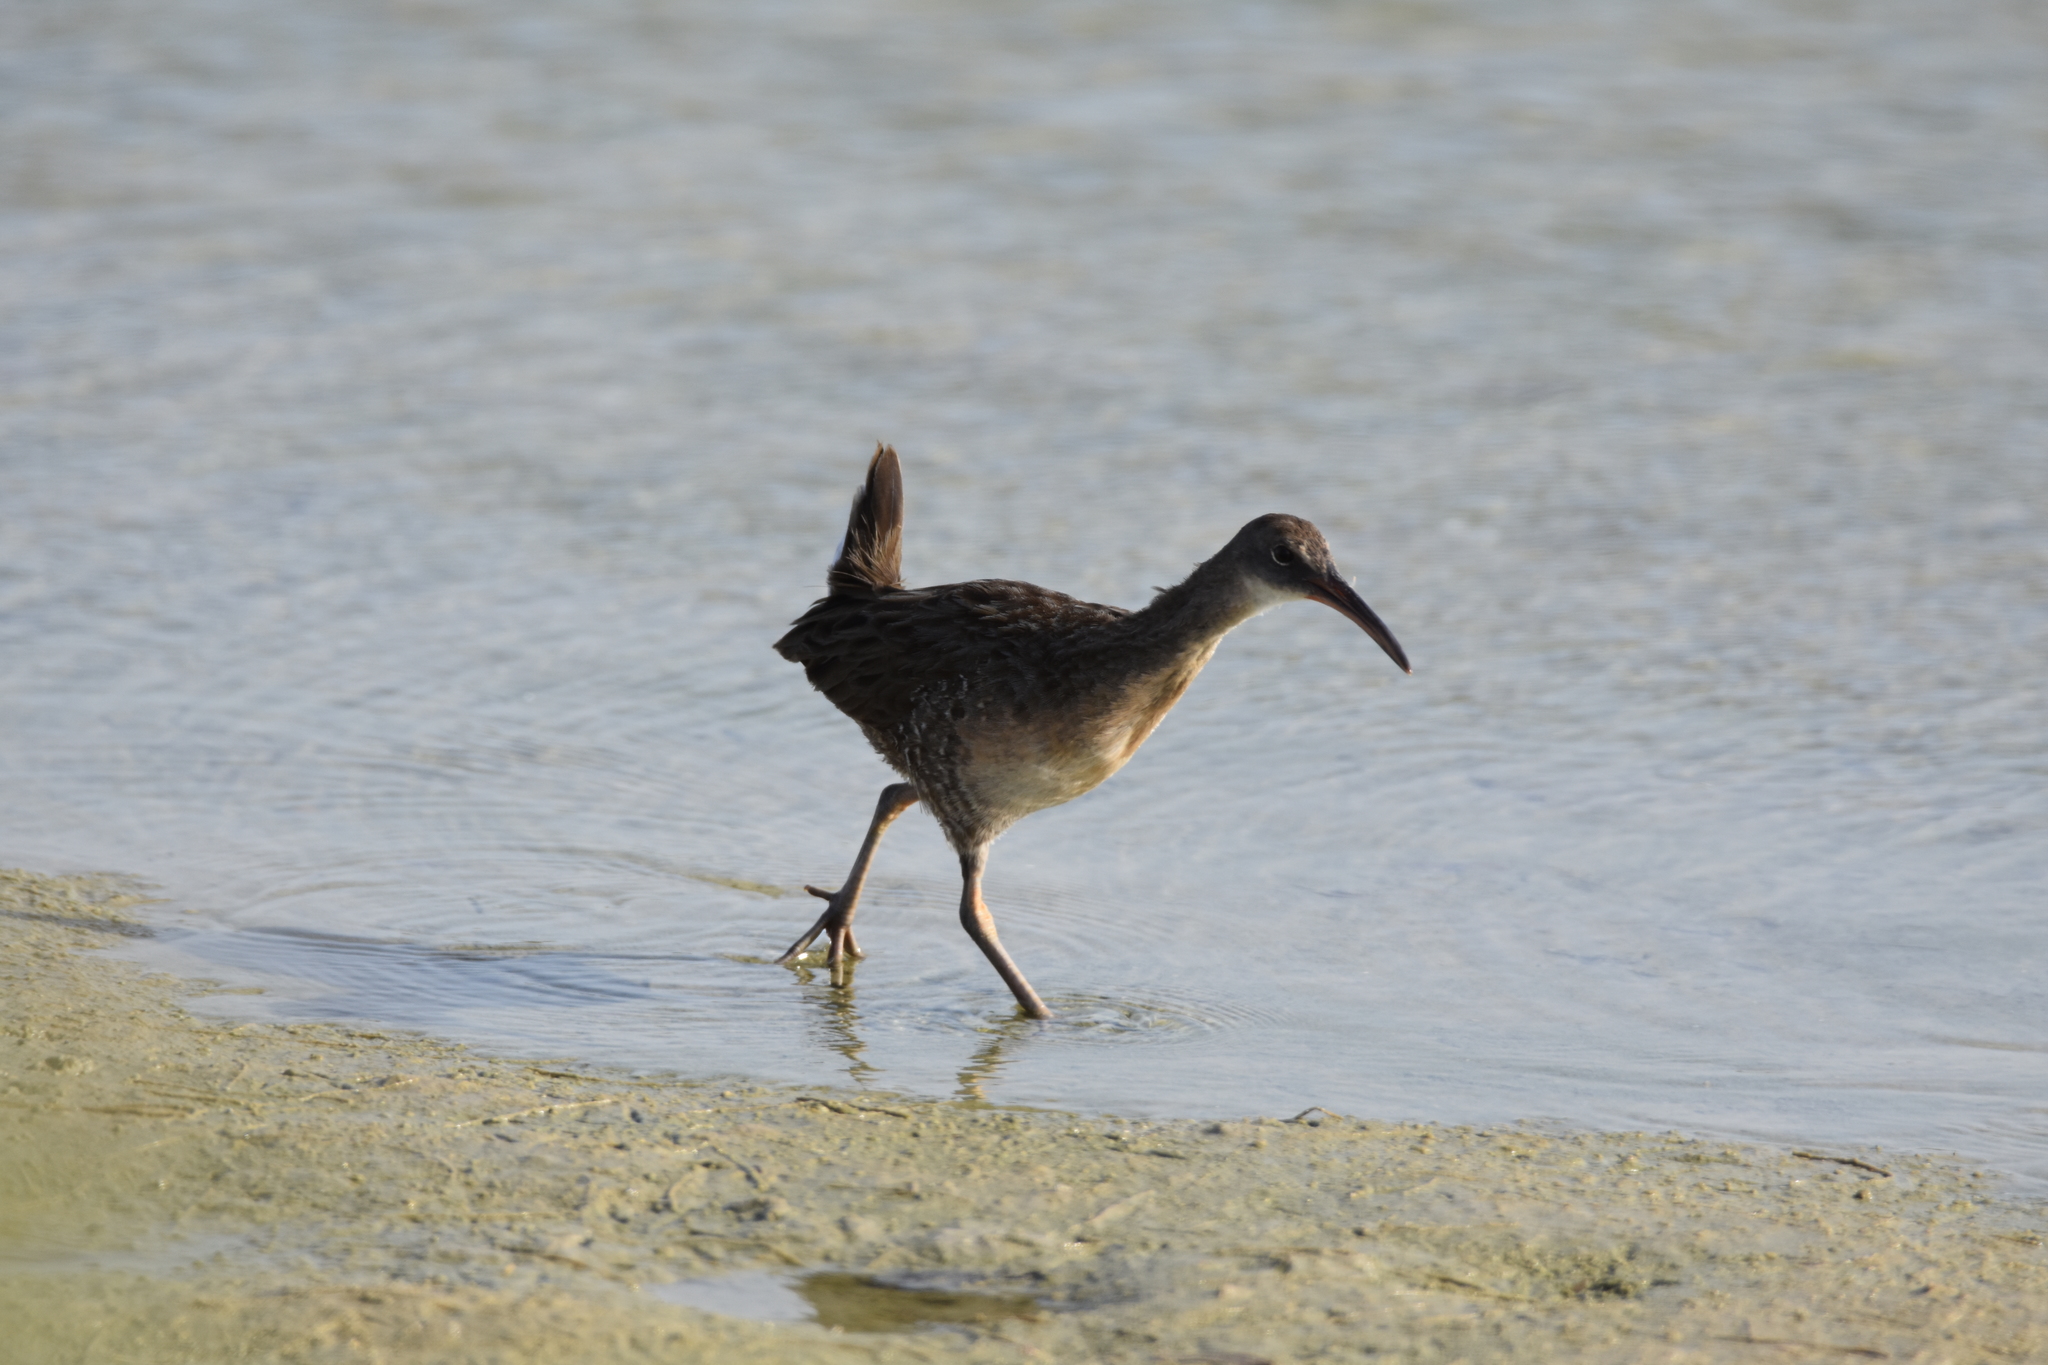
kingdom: Animalia
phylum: Chordata
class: Aves
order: Gruiformes
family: Rallidae
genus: Rallus
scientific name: Rallus crepitans
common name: Clapper rail
